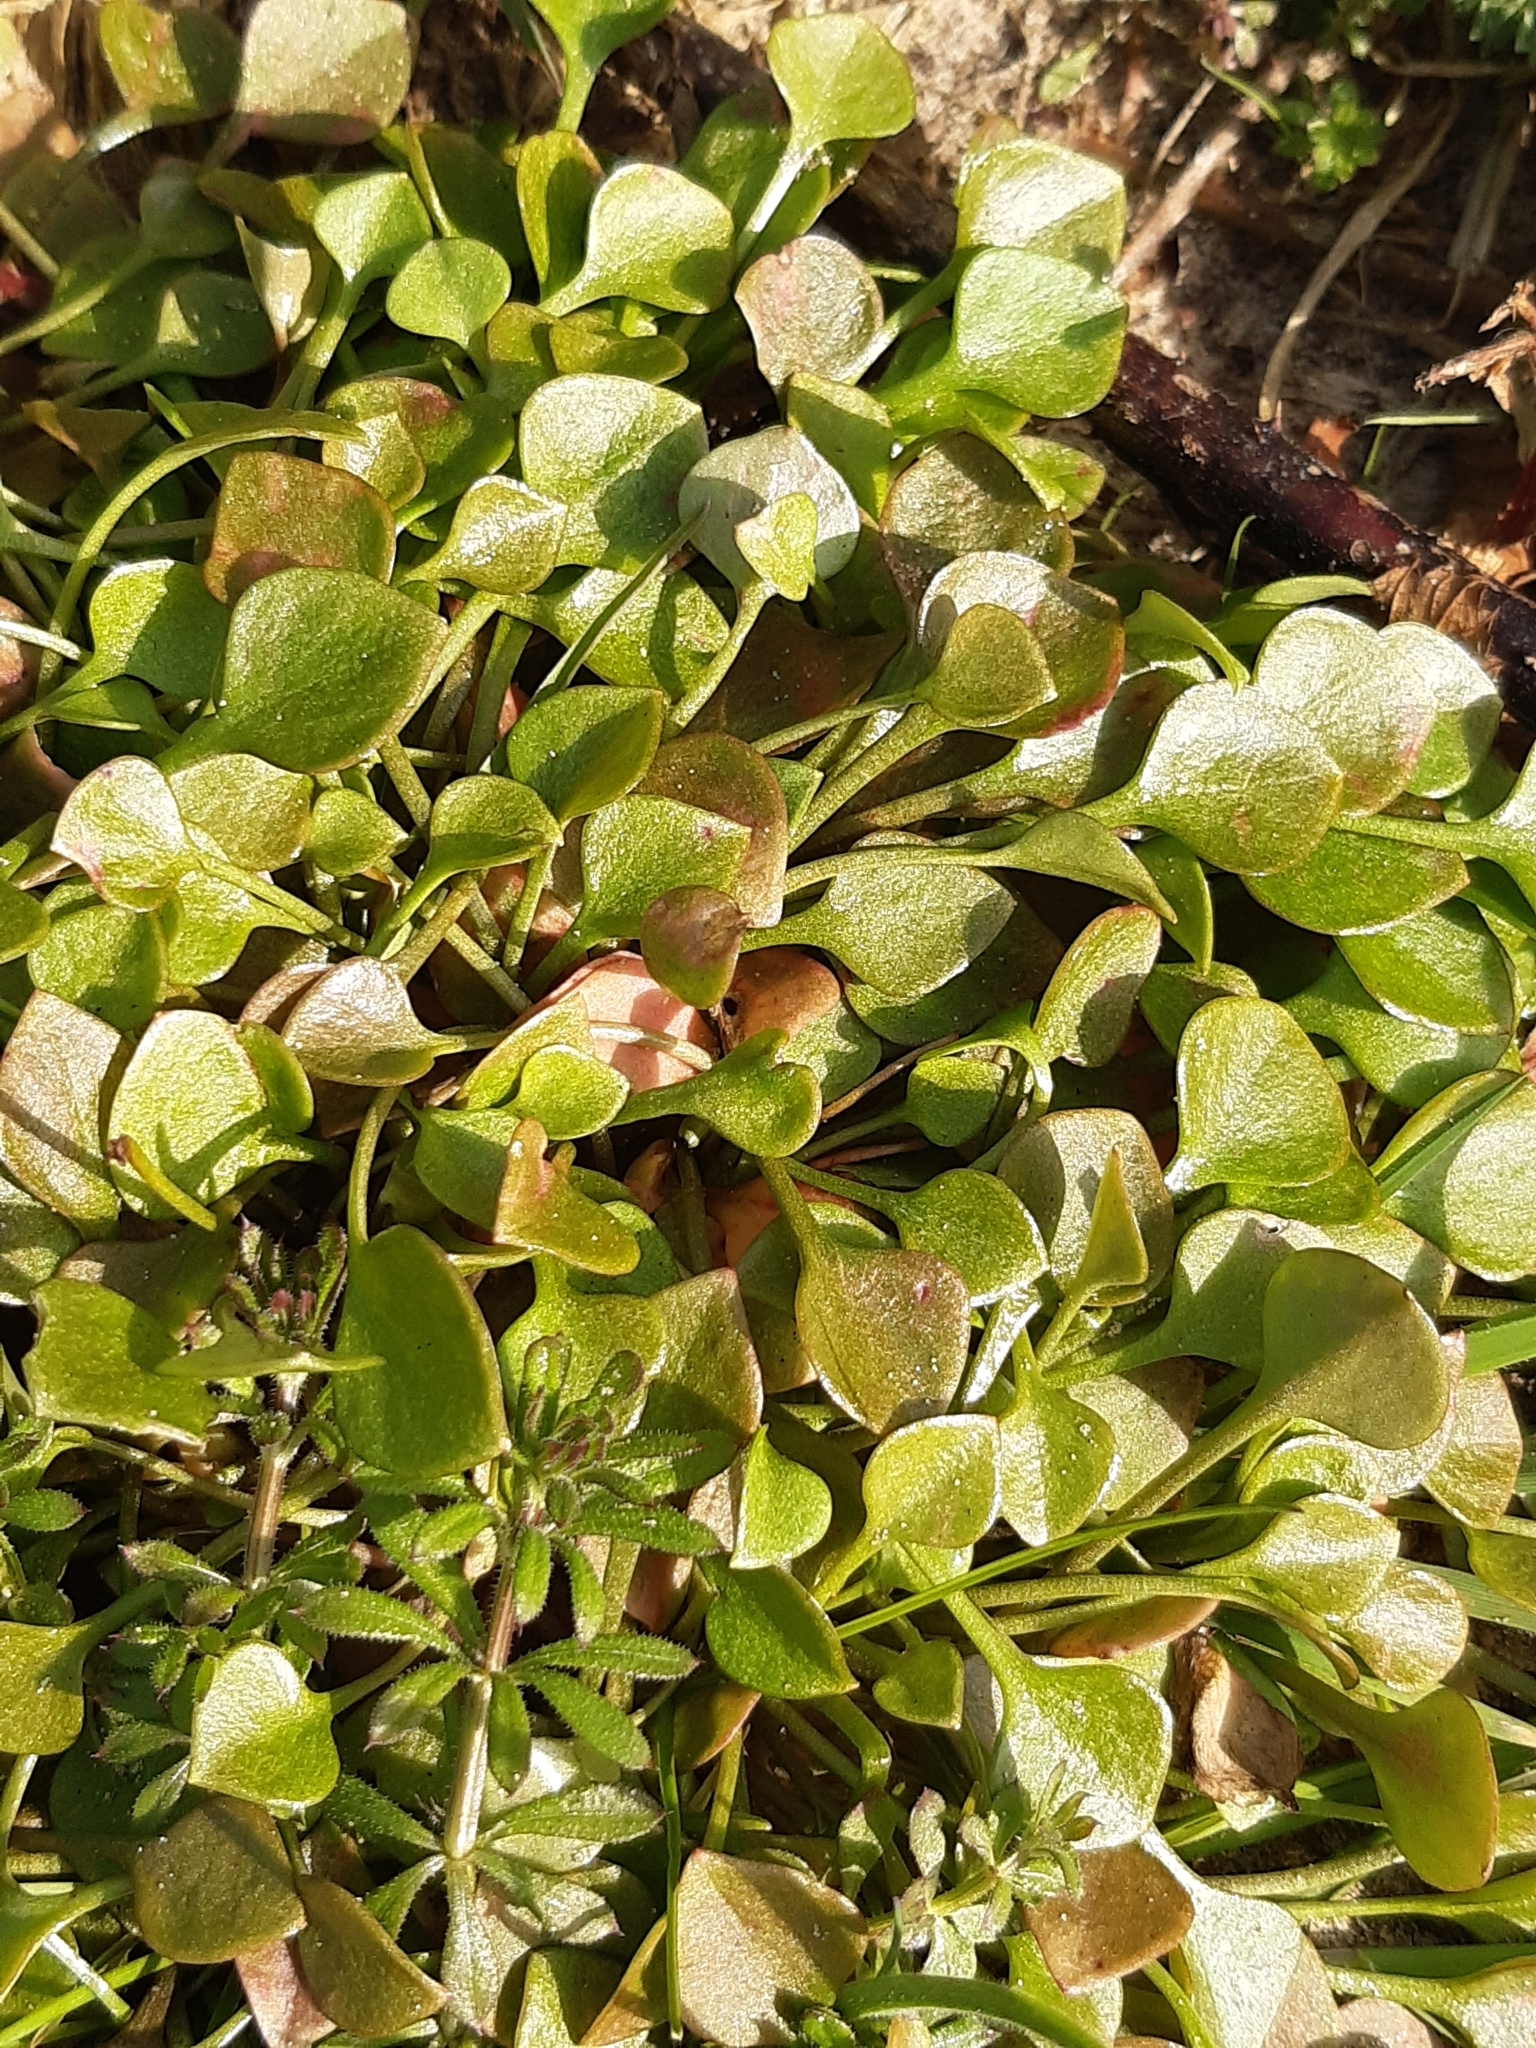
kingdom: Plantae
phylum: Tracheophyta
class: Magnoliopsida
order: Caryophyllales
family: Montiaceae
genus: Claytonia
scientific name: Claytonia perfoliata
